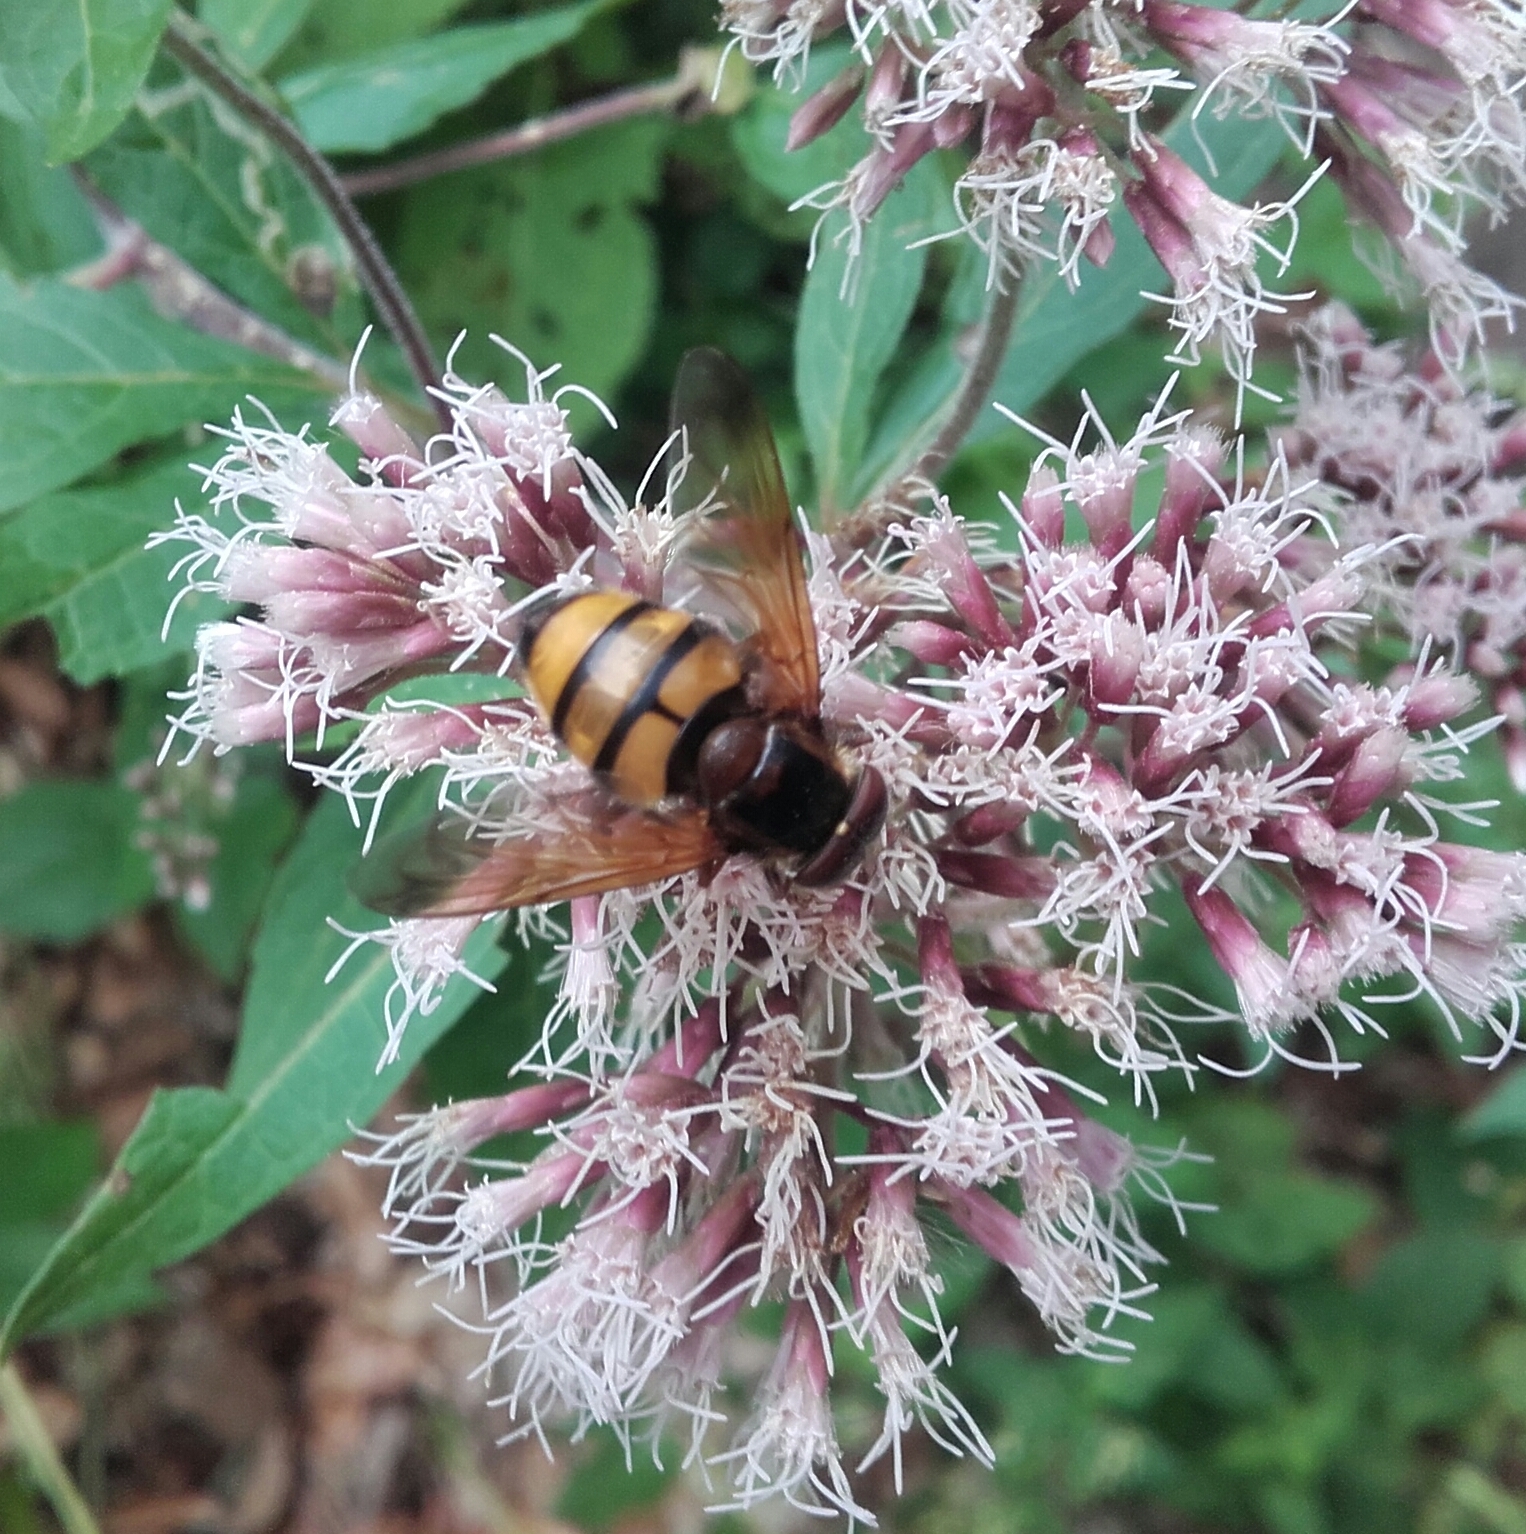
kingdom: Animalia
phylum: Arthropoda
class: Insecta
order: Diptera
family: Syrphidae
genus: Volucella
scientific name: Volucella inanis
